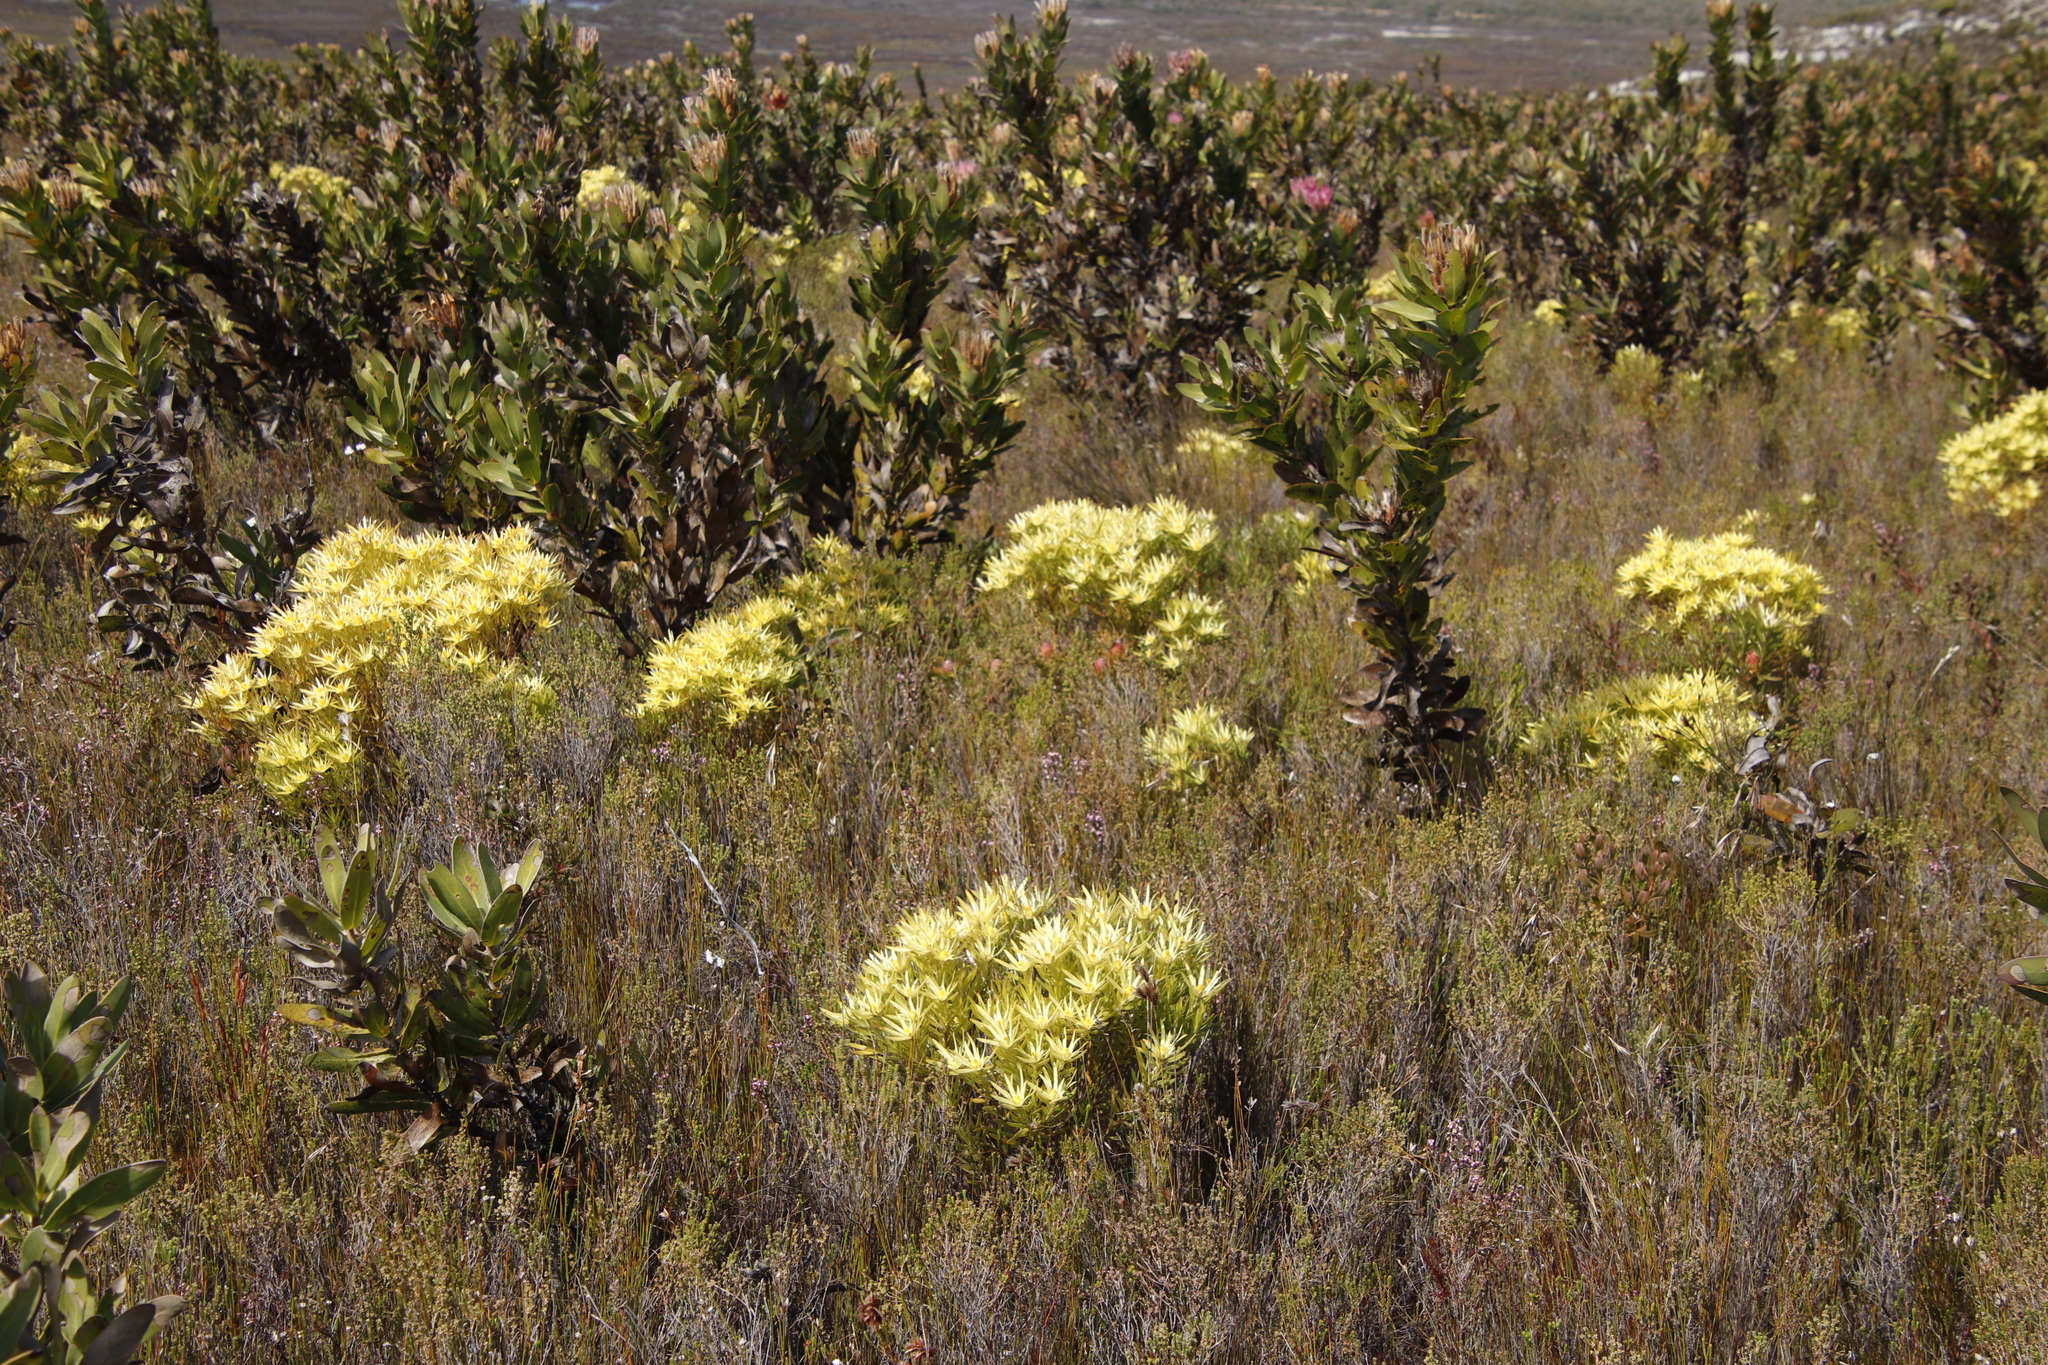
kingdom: Plantae
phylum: Tracheophyta
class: Magnoliopsida
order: Proteales
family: Proteaceae
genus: Leucadendron
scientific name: Leucadendron xanthoconus
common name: Sickle-leaf conebush
